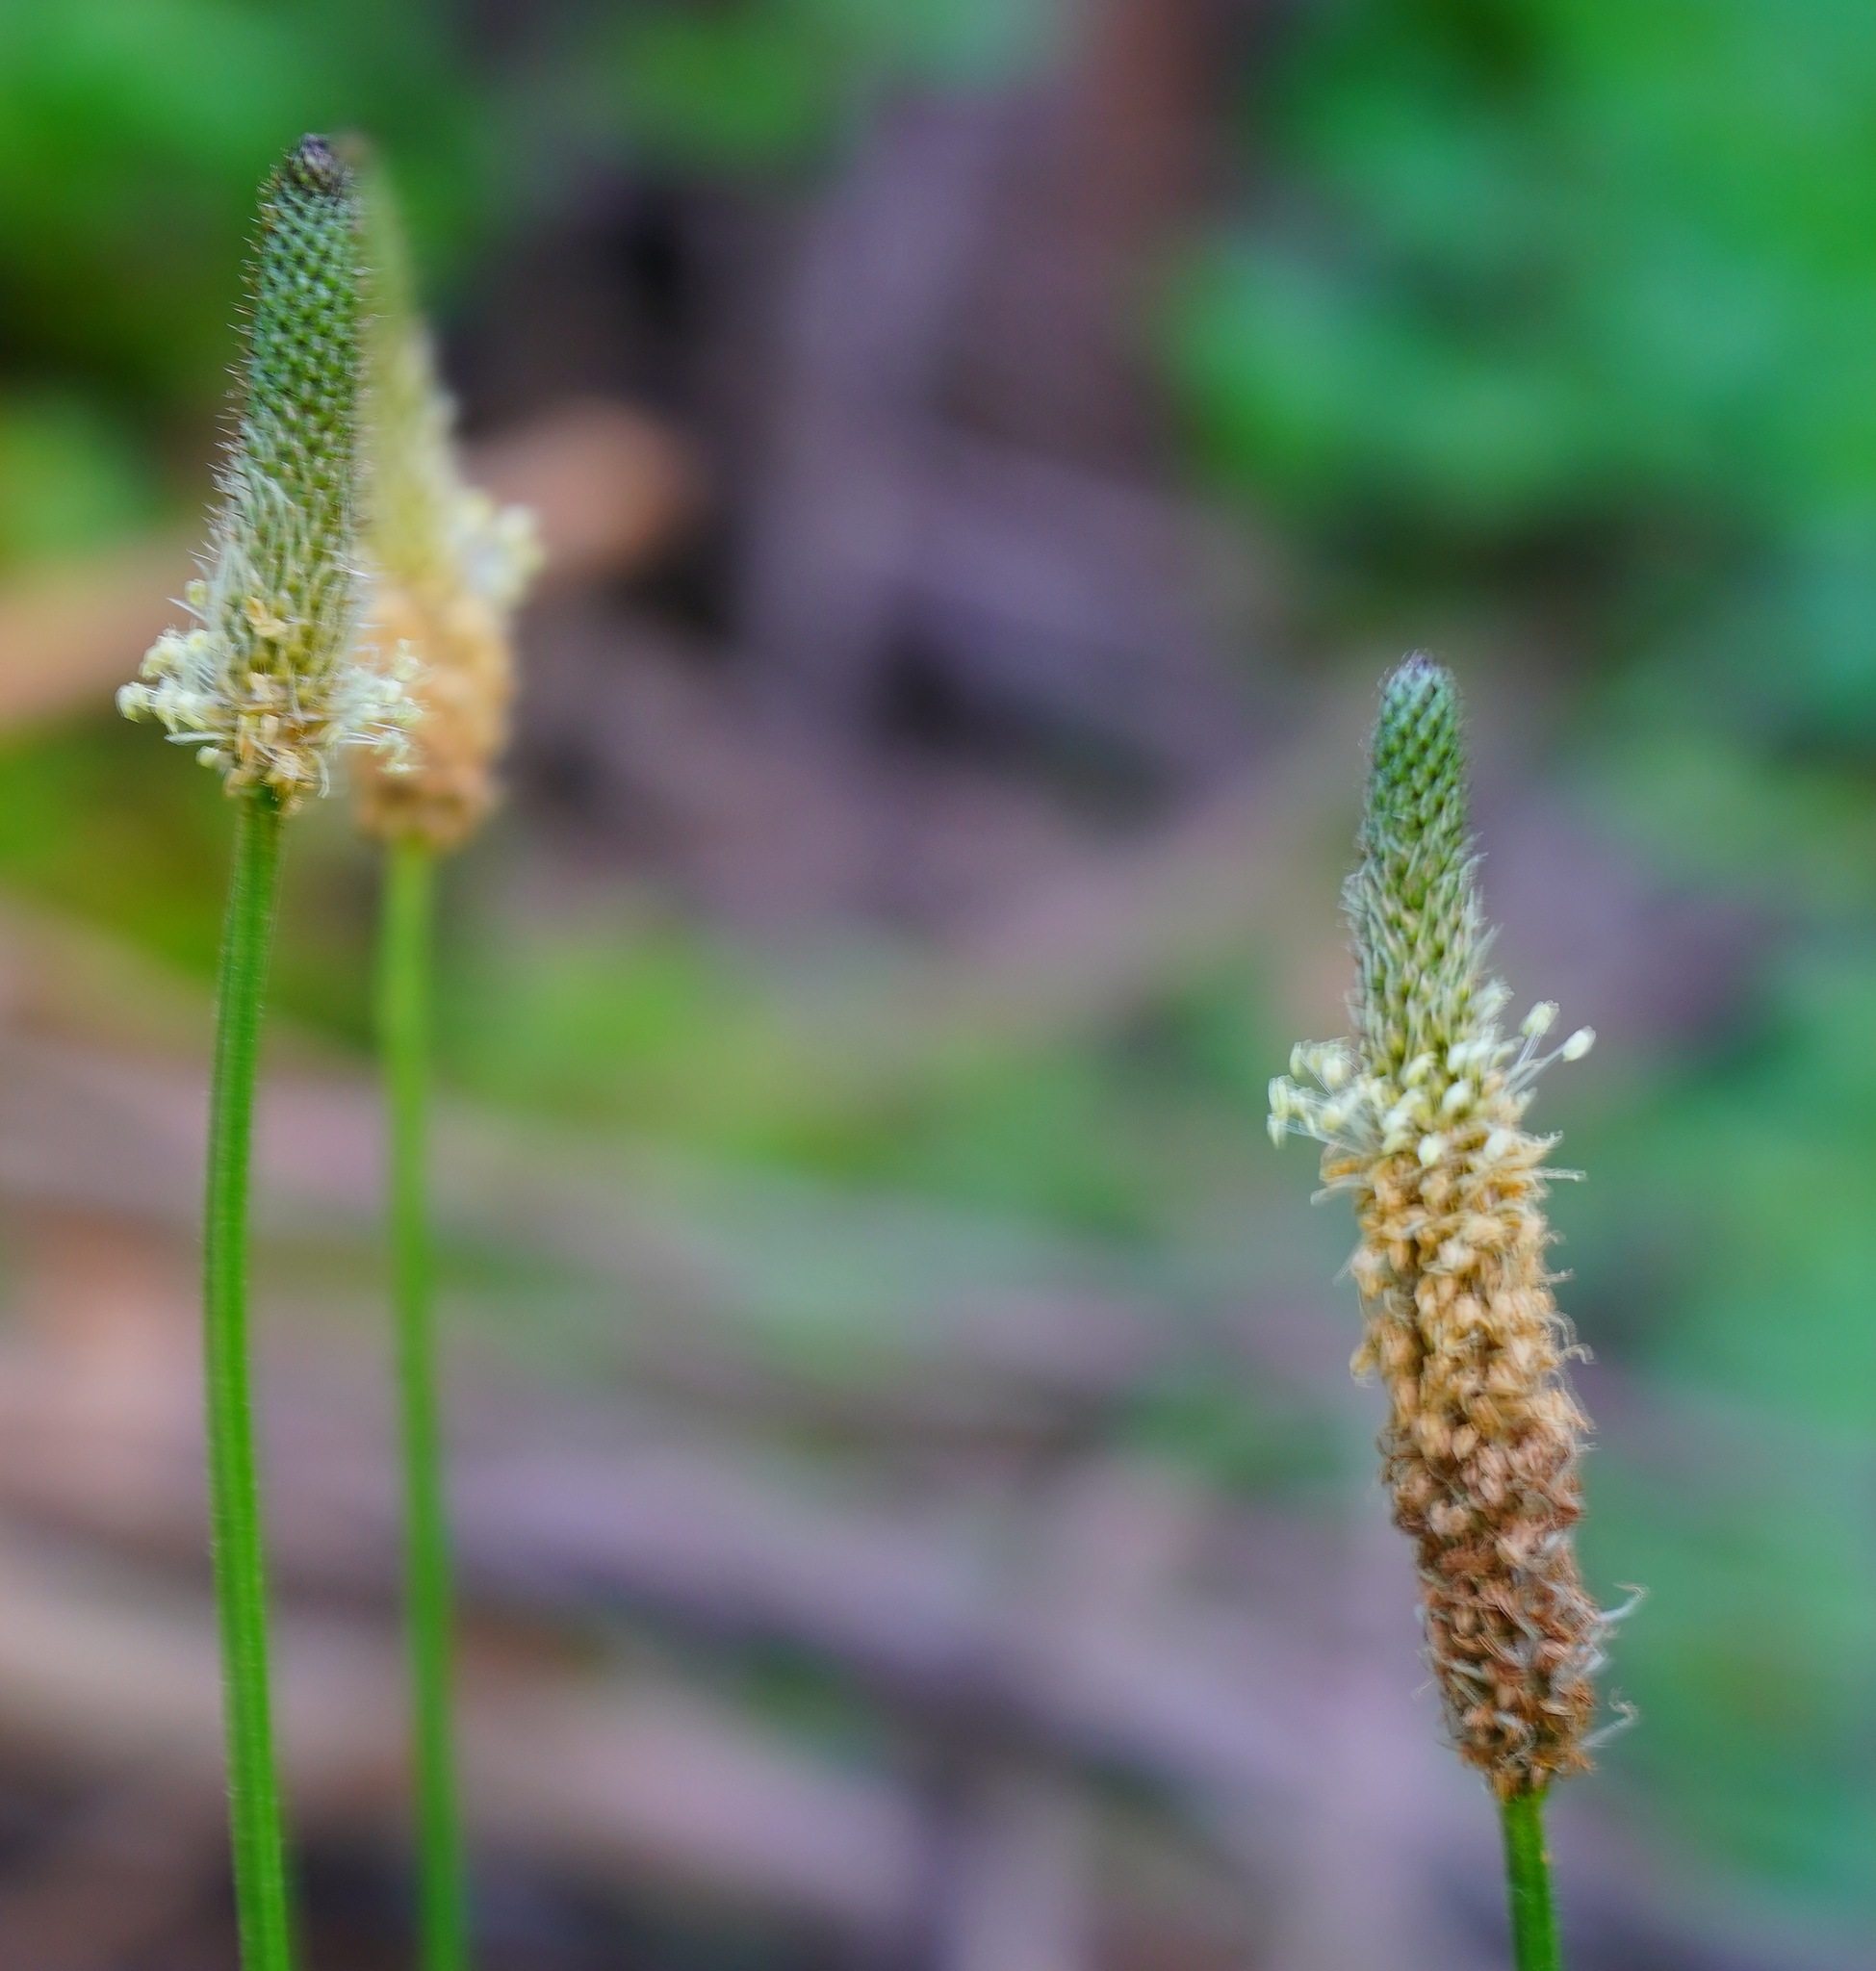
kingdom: Plantae
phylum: Tracheophyta
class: Magnoliopsida
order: Lamiales
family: Plantaginaceae
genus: Plantago
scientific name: Plantago lanceolata
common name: Ribwort plantain
